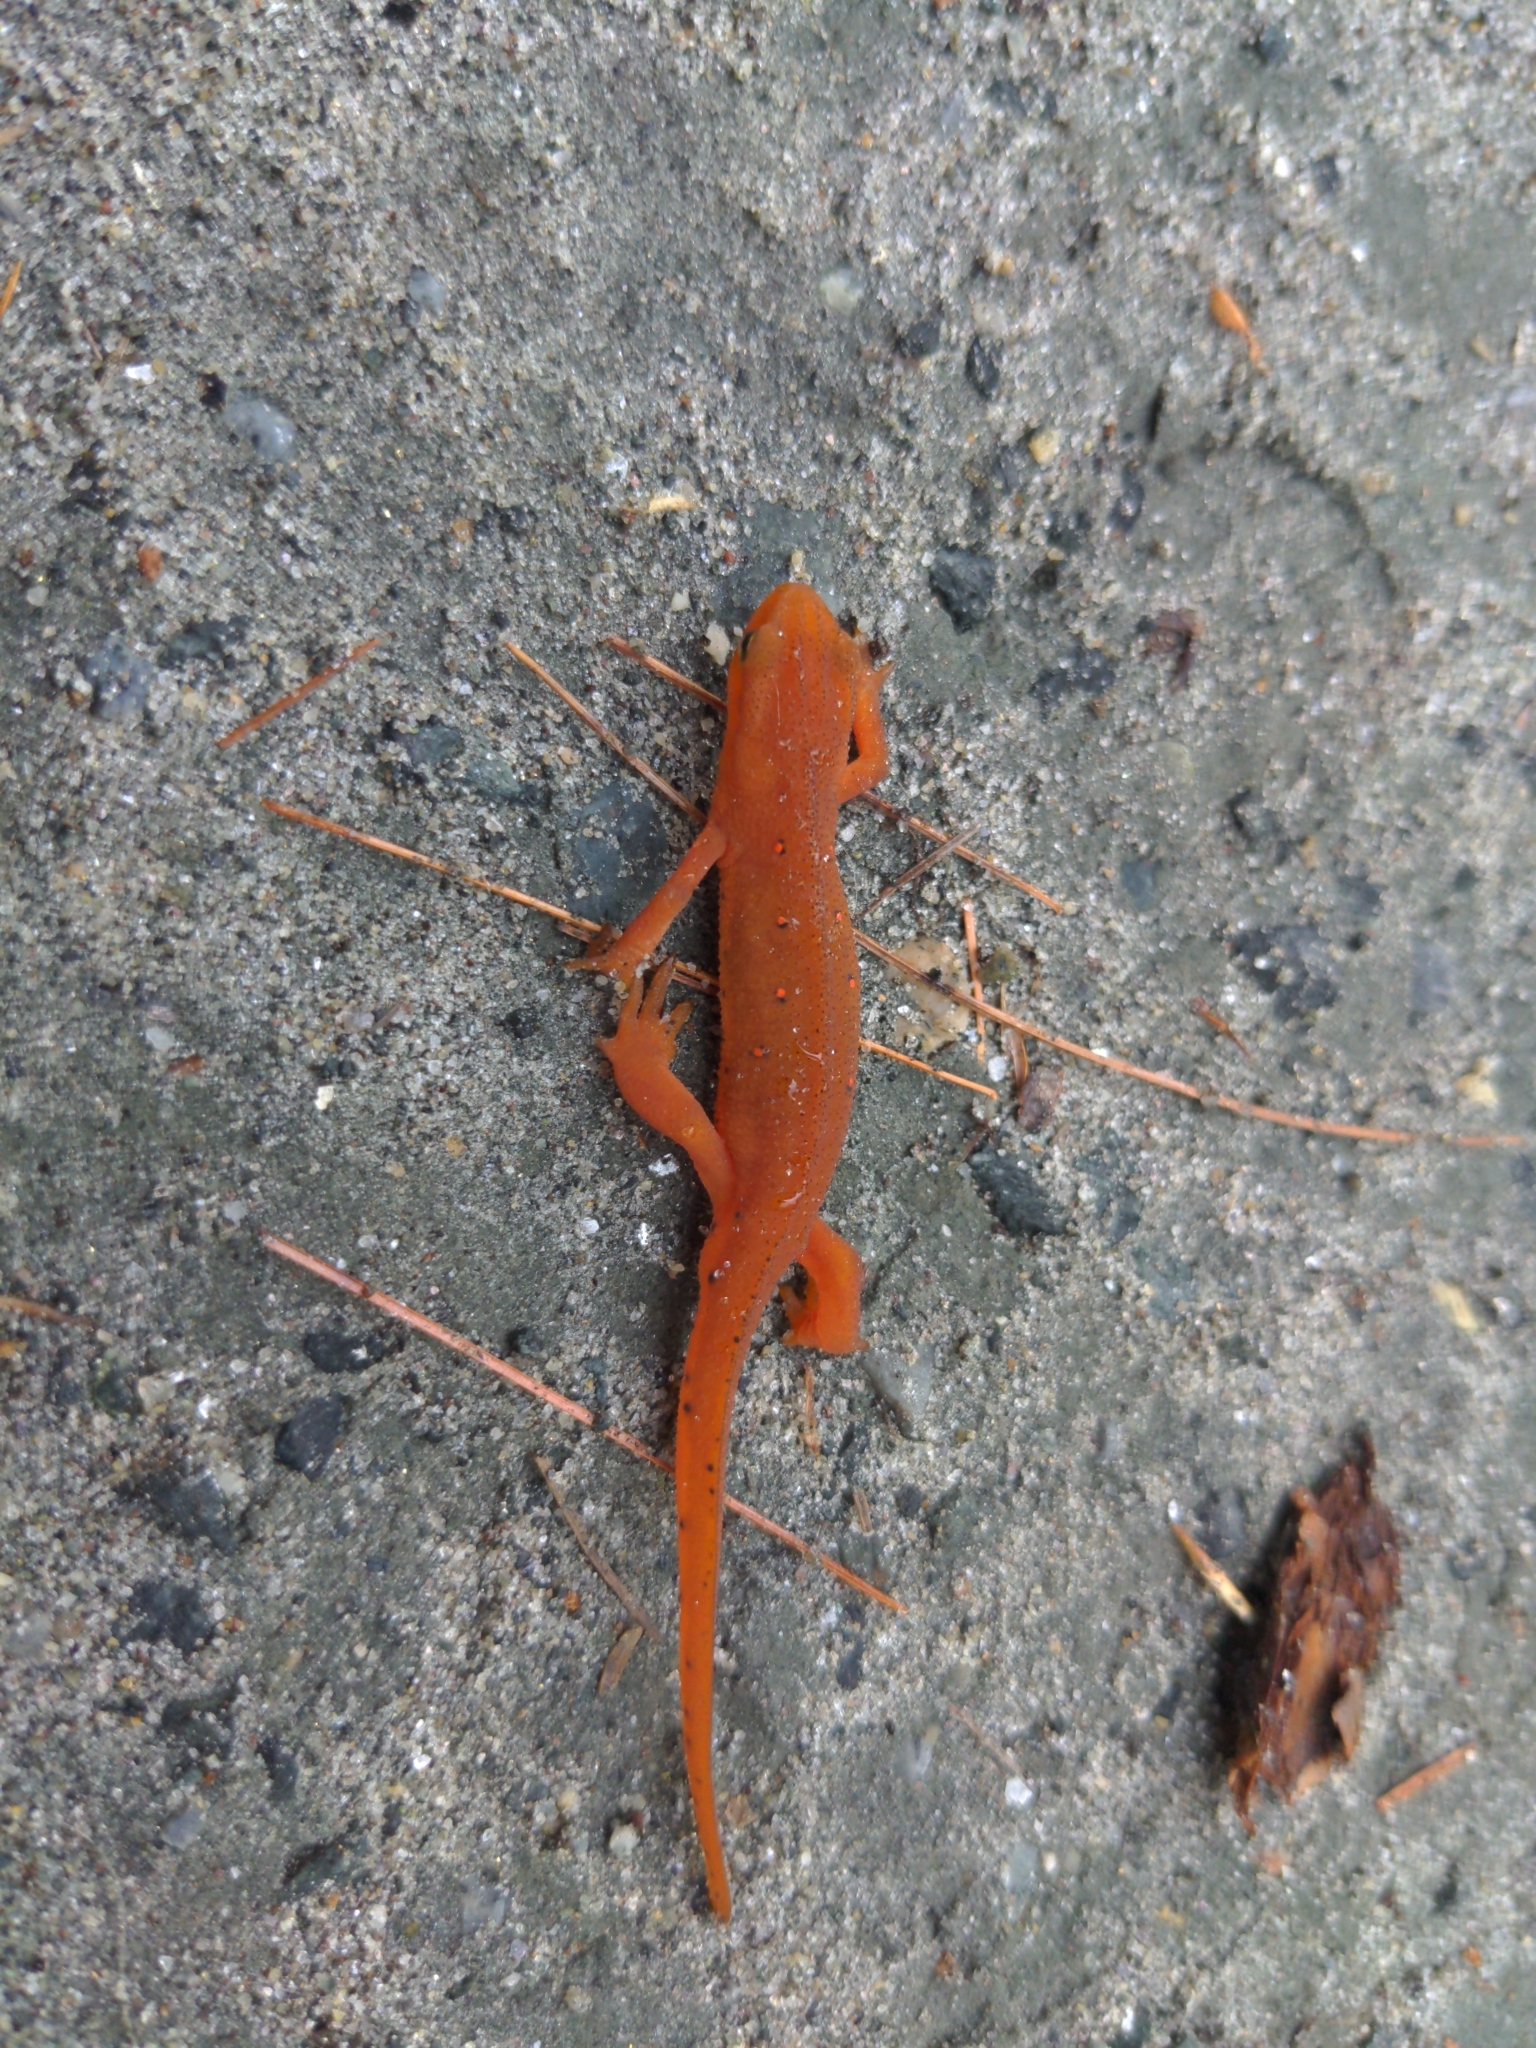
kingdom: Animalia
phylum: Chordata
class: Amphibia
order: Caudata
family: Salamandridae
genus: Notophthalmus
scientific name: Notophthalmus viridescens
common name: Eastern newt
